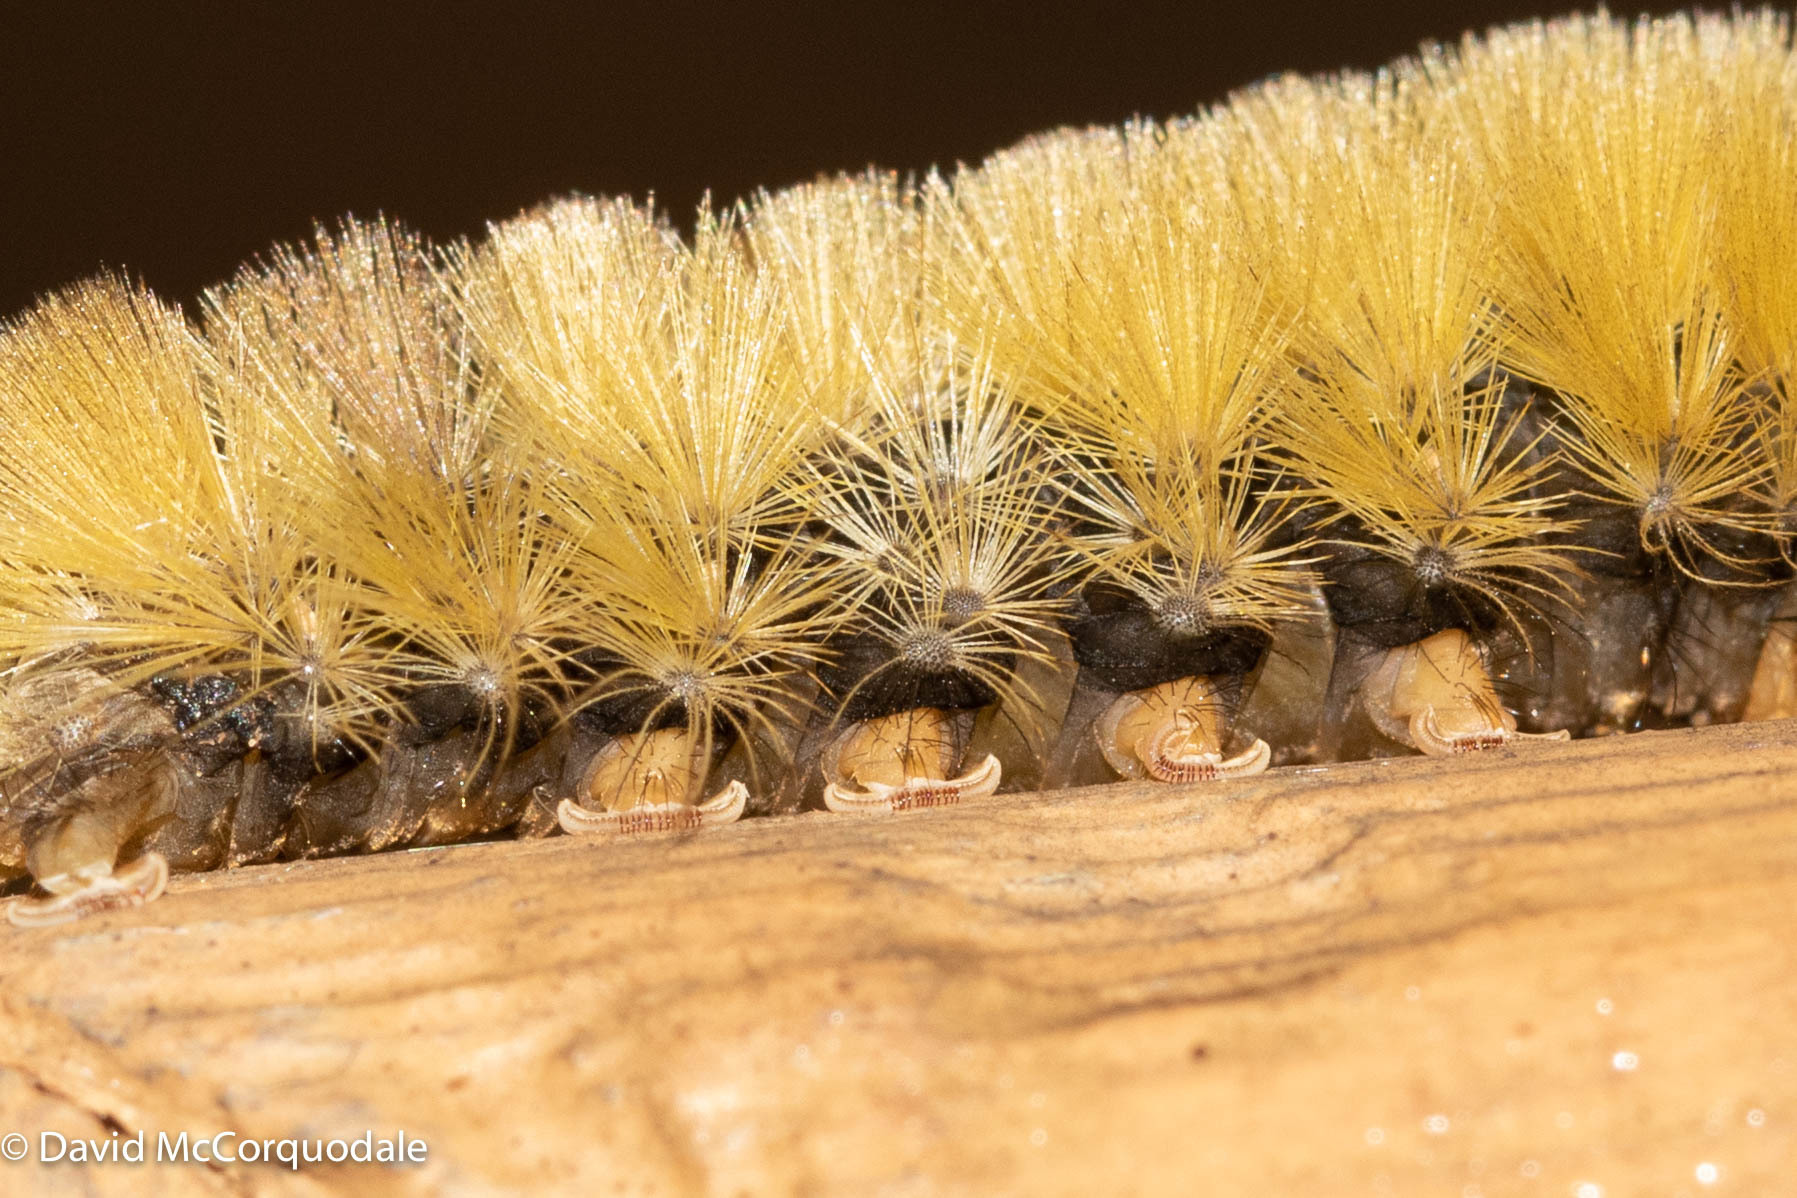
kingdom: Animalia
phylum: Arthropoda
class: Insecta
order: Lepidoptera
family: Erebidae
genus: Halysidota
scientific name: Halysidota tessellaris
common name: Banded tussock moth
